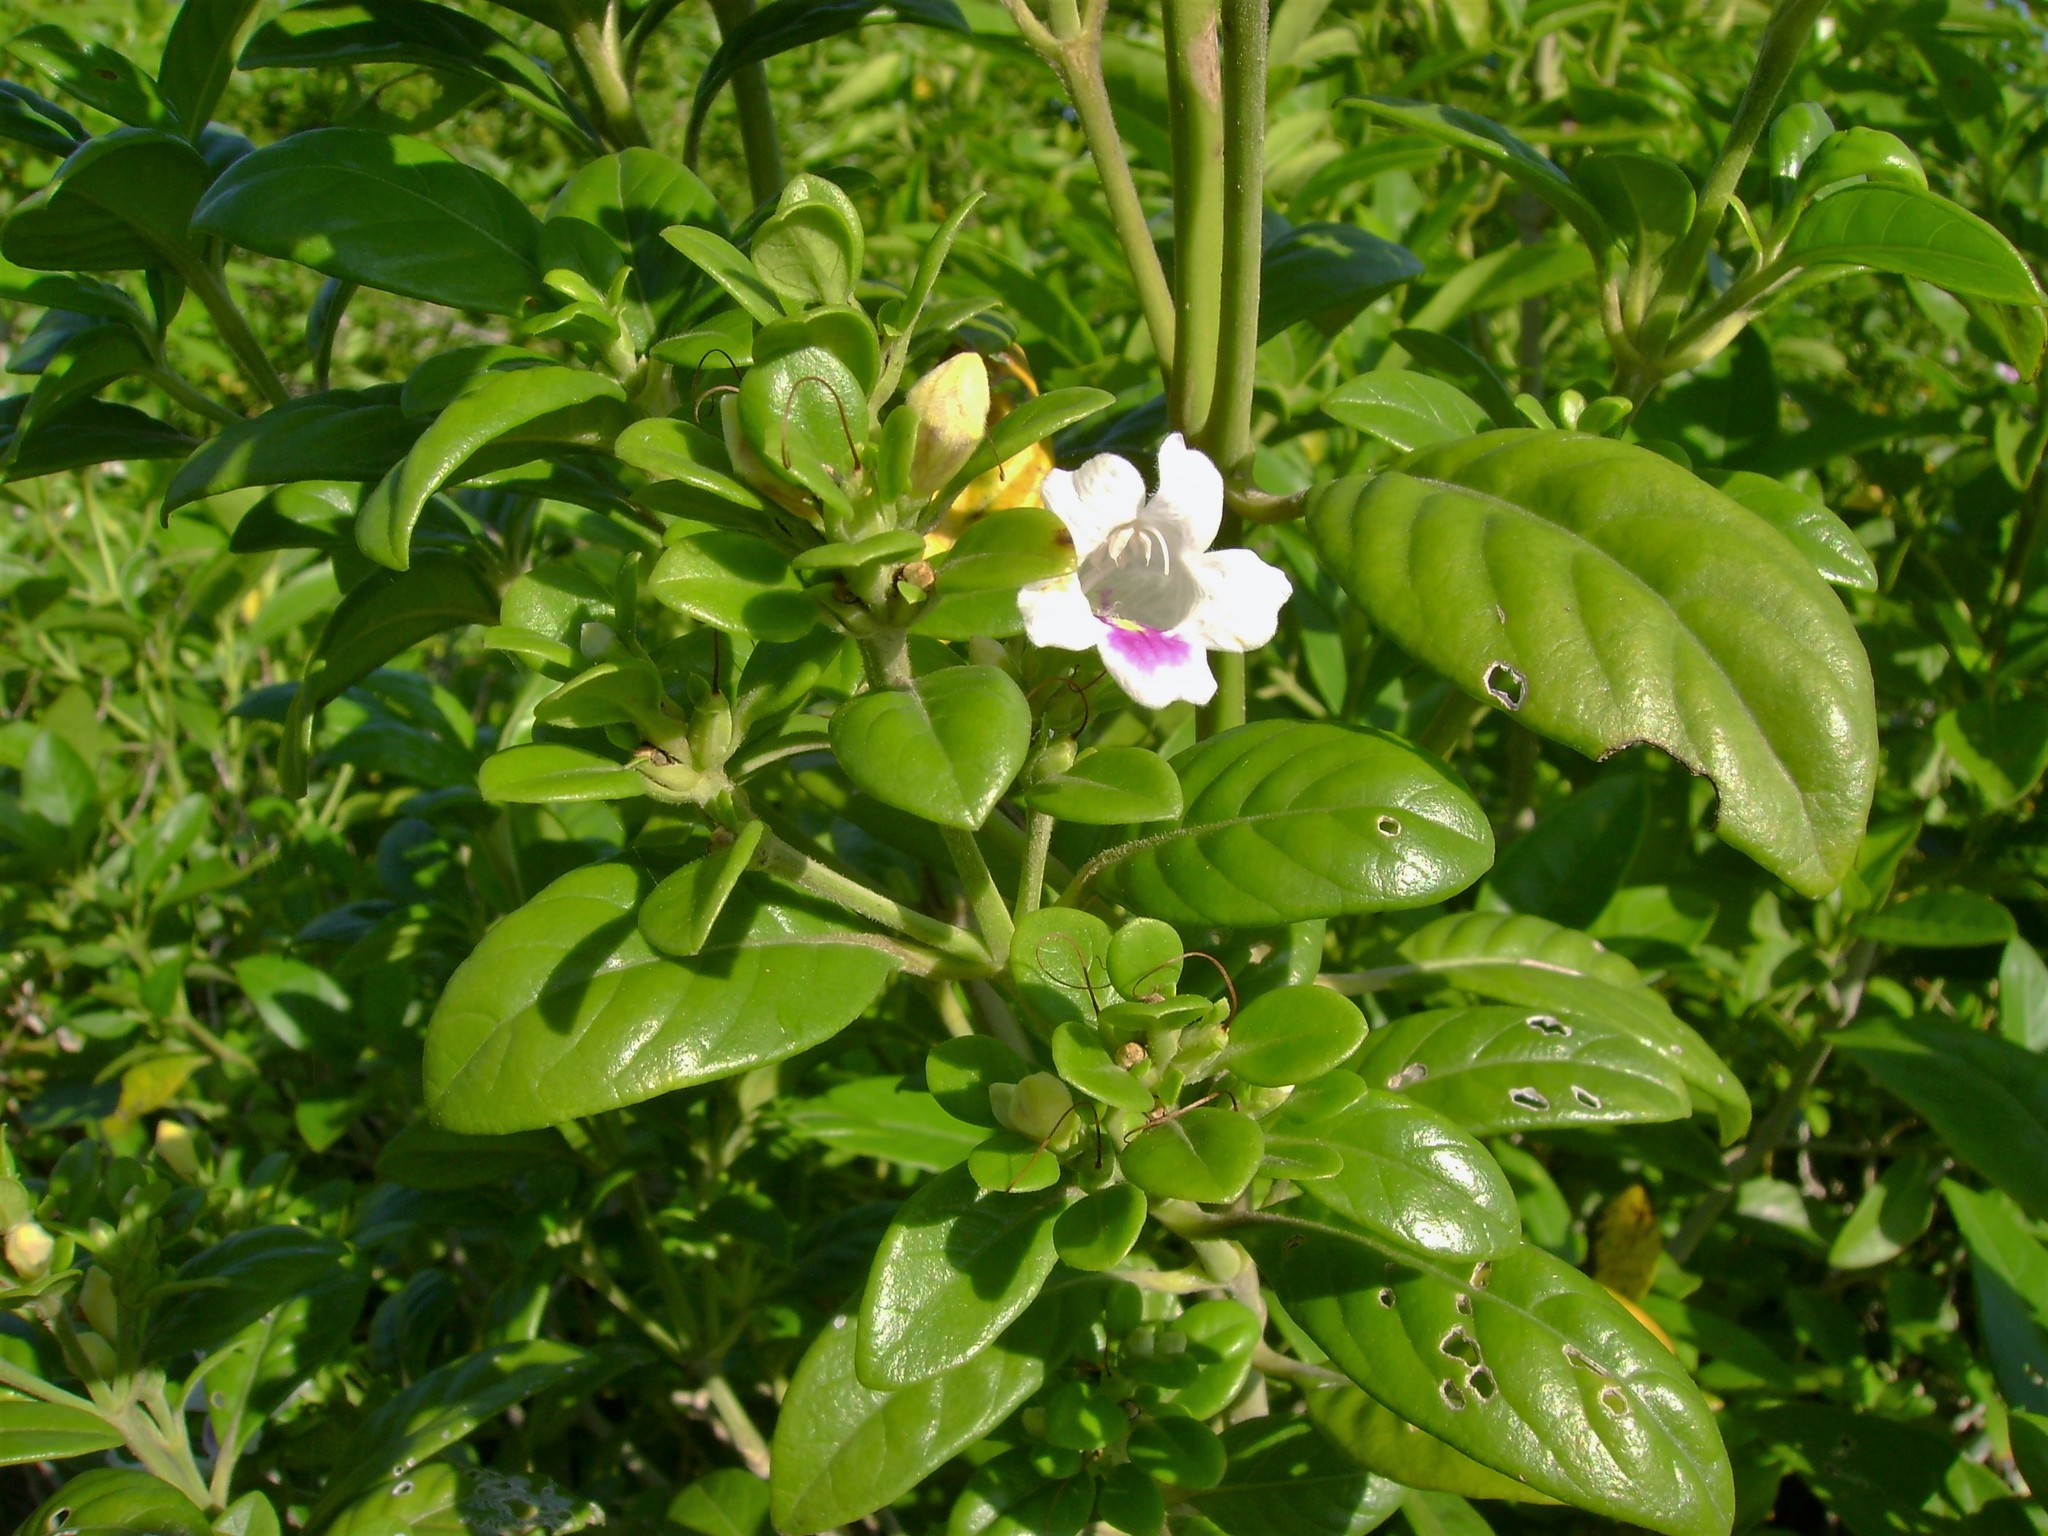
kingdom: Plantae
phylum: Tracheophyta
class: Magnoliopsida
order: Lamiales
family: Acanthaceae
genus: Bravaisia
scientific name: Bravaisia berlandieriana
